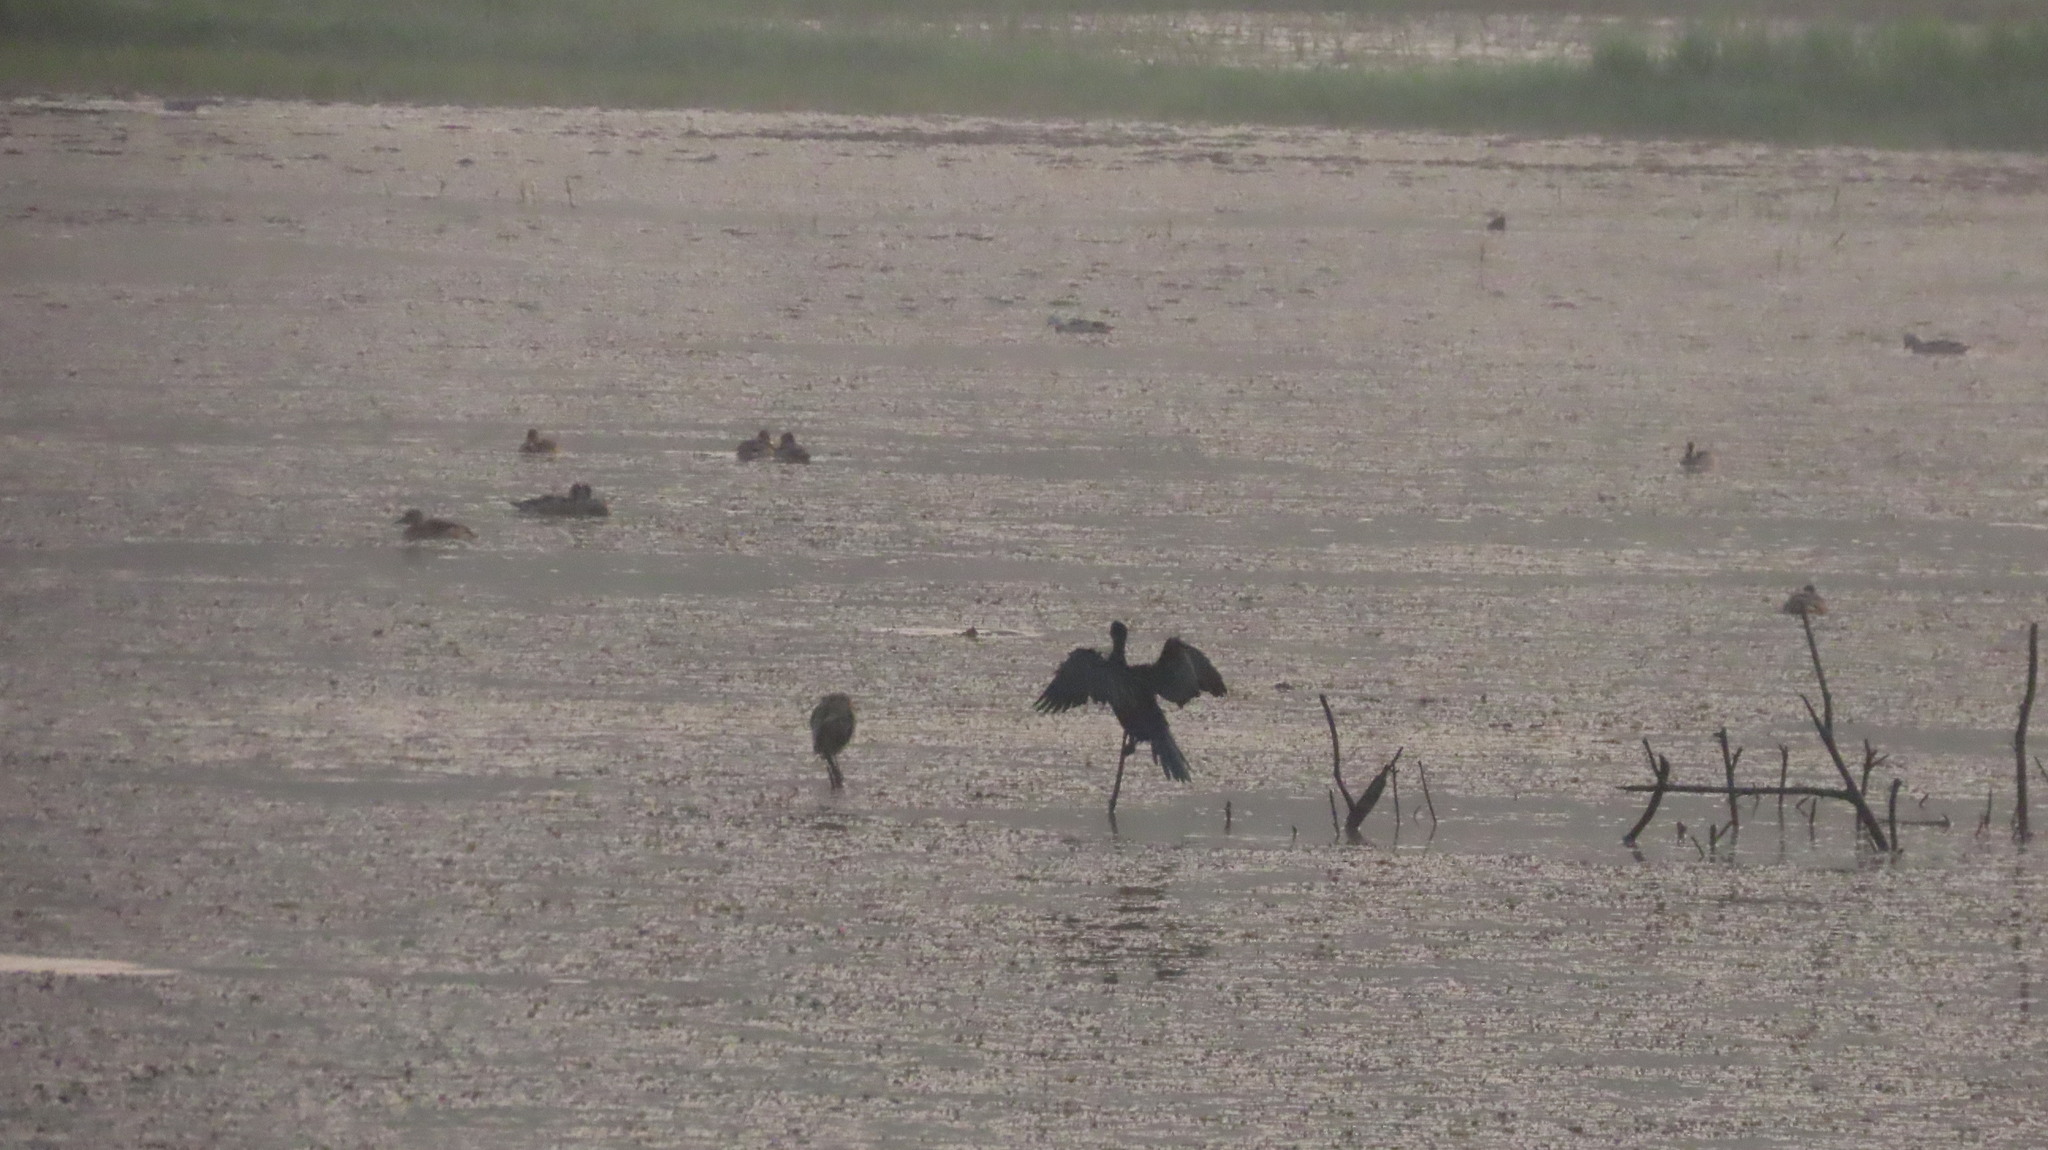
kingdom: Animalia
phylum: Chordata
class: Aves
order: Suliformes
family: Phalacrocoracidae
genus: Microcarbo
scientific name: Microcarbo niger
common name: Little cormorant
